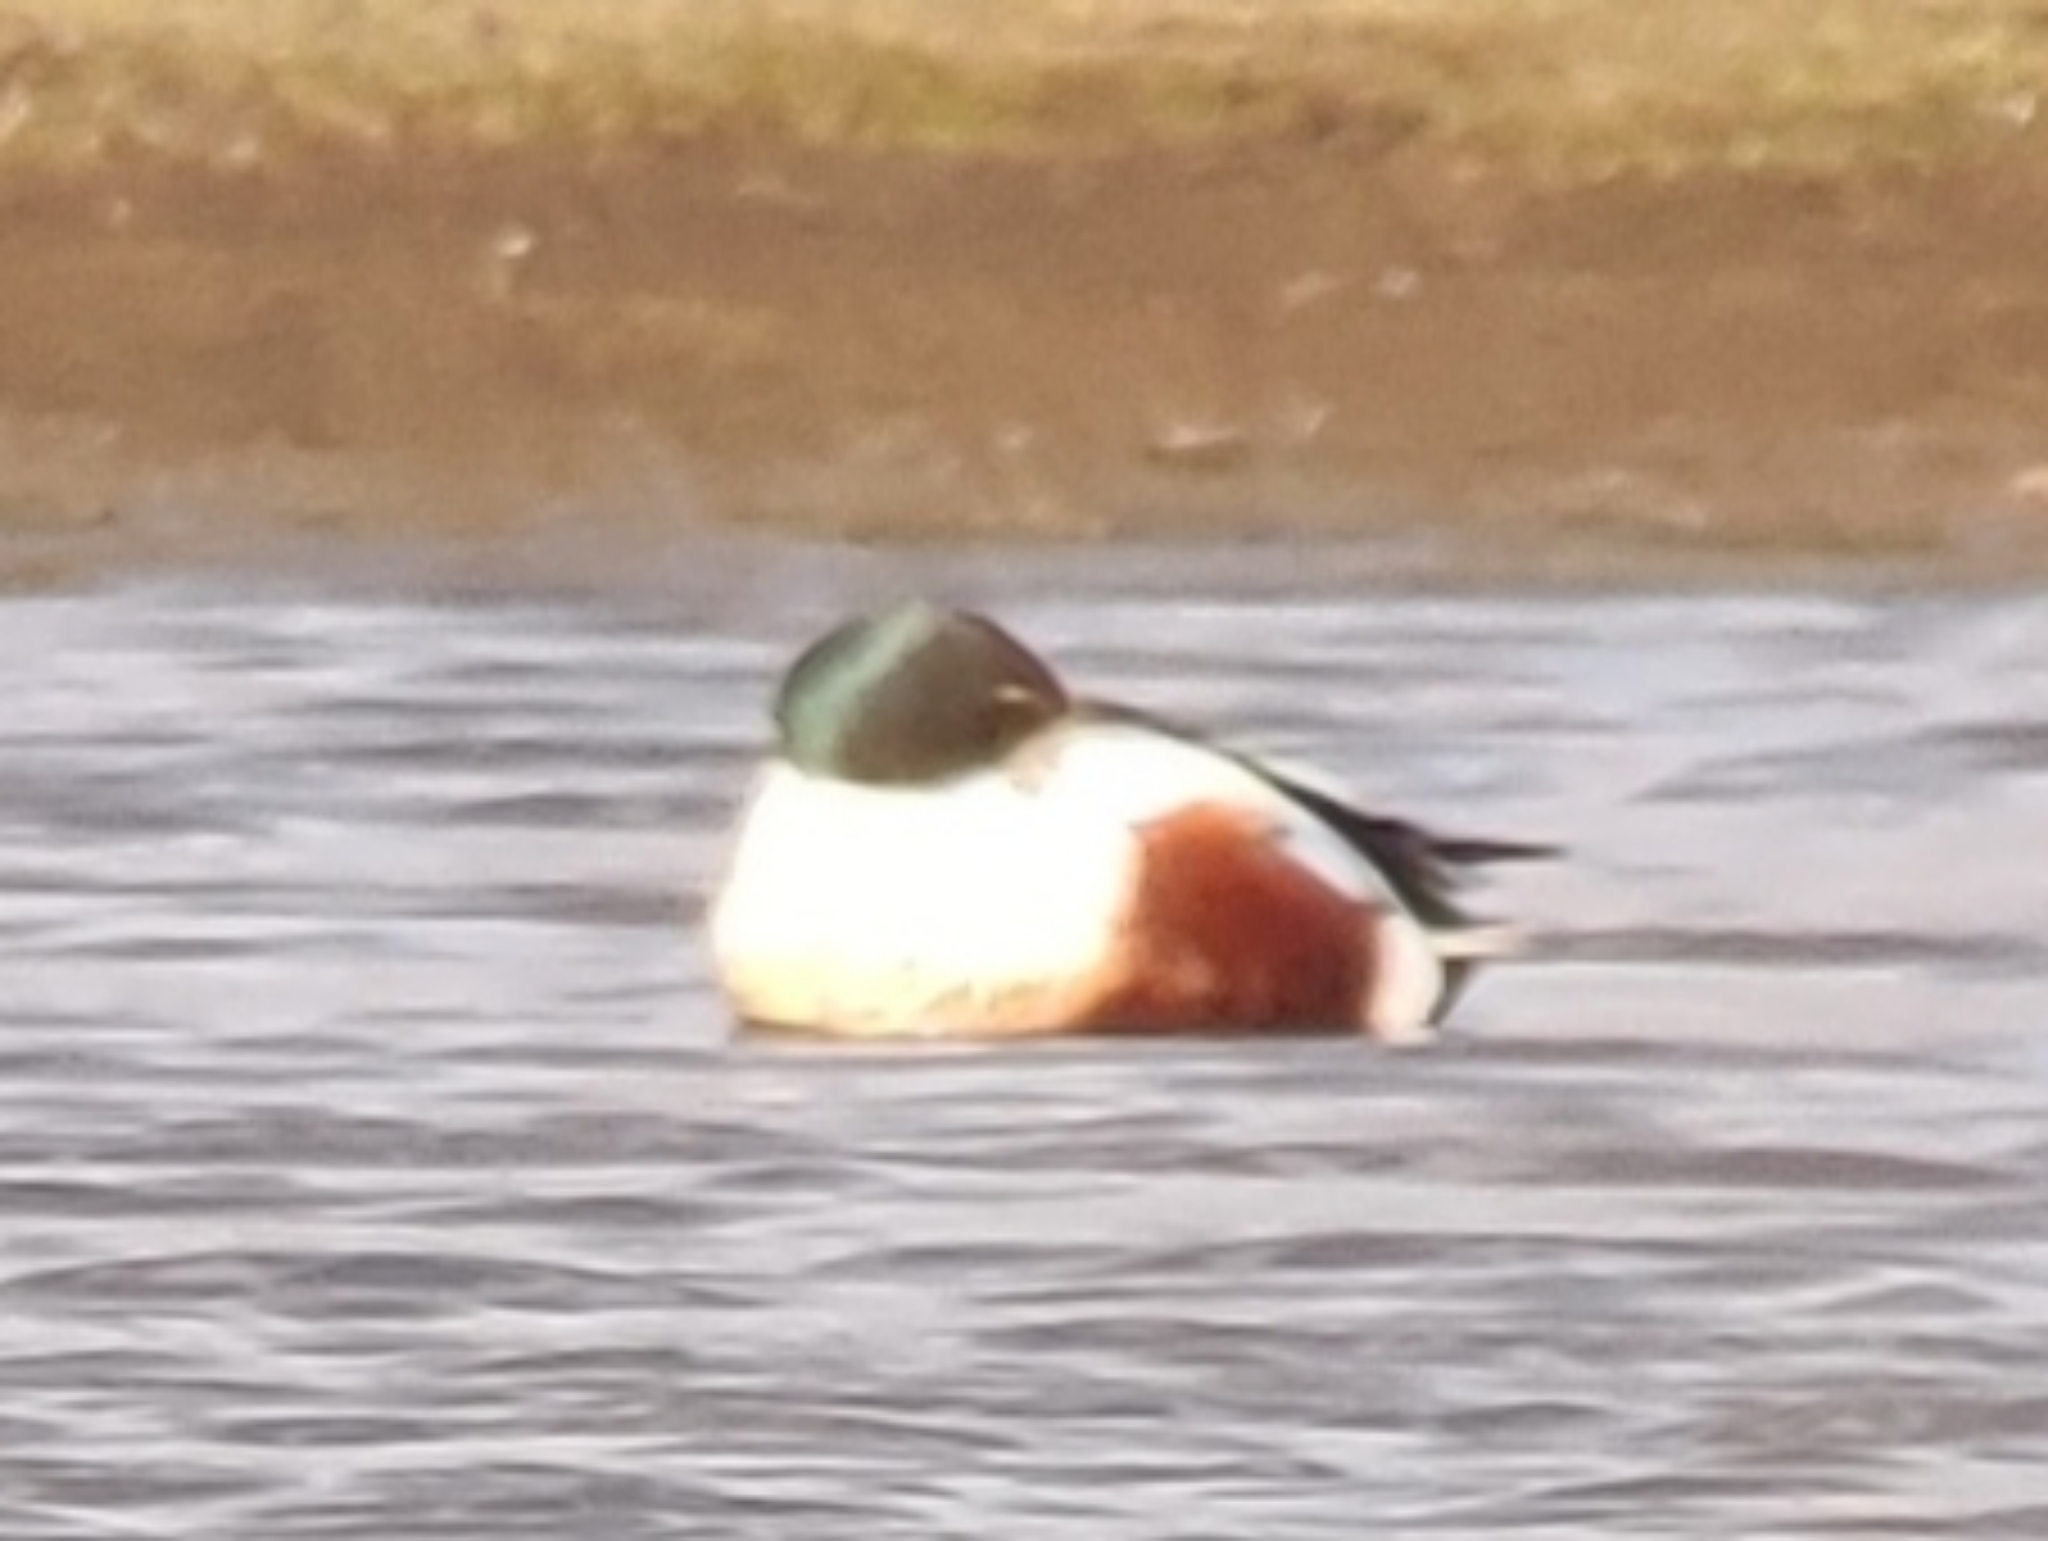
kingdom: Animalia
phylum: Chordata
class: Aves
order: Anseriformes
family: Anatidae
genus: Spatula
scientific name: Spatula clypeata
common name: Northern shoveler
